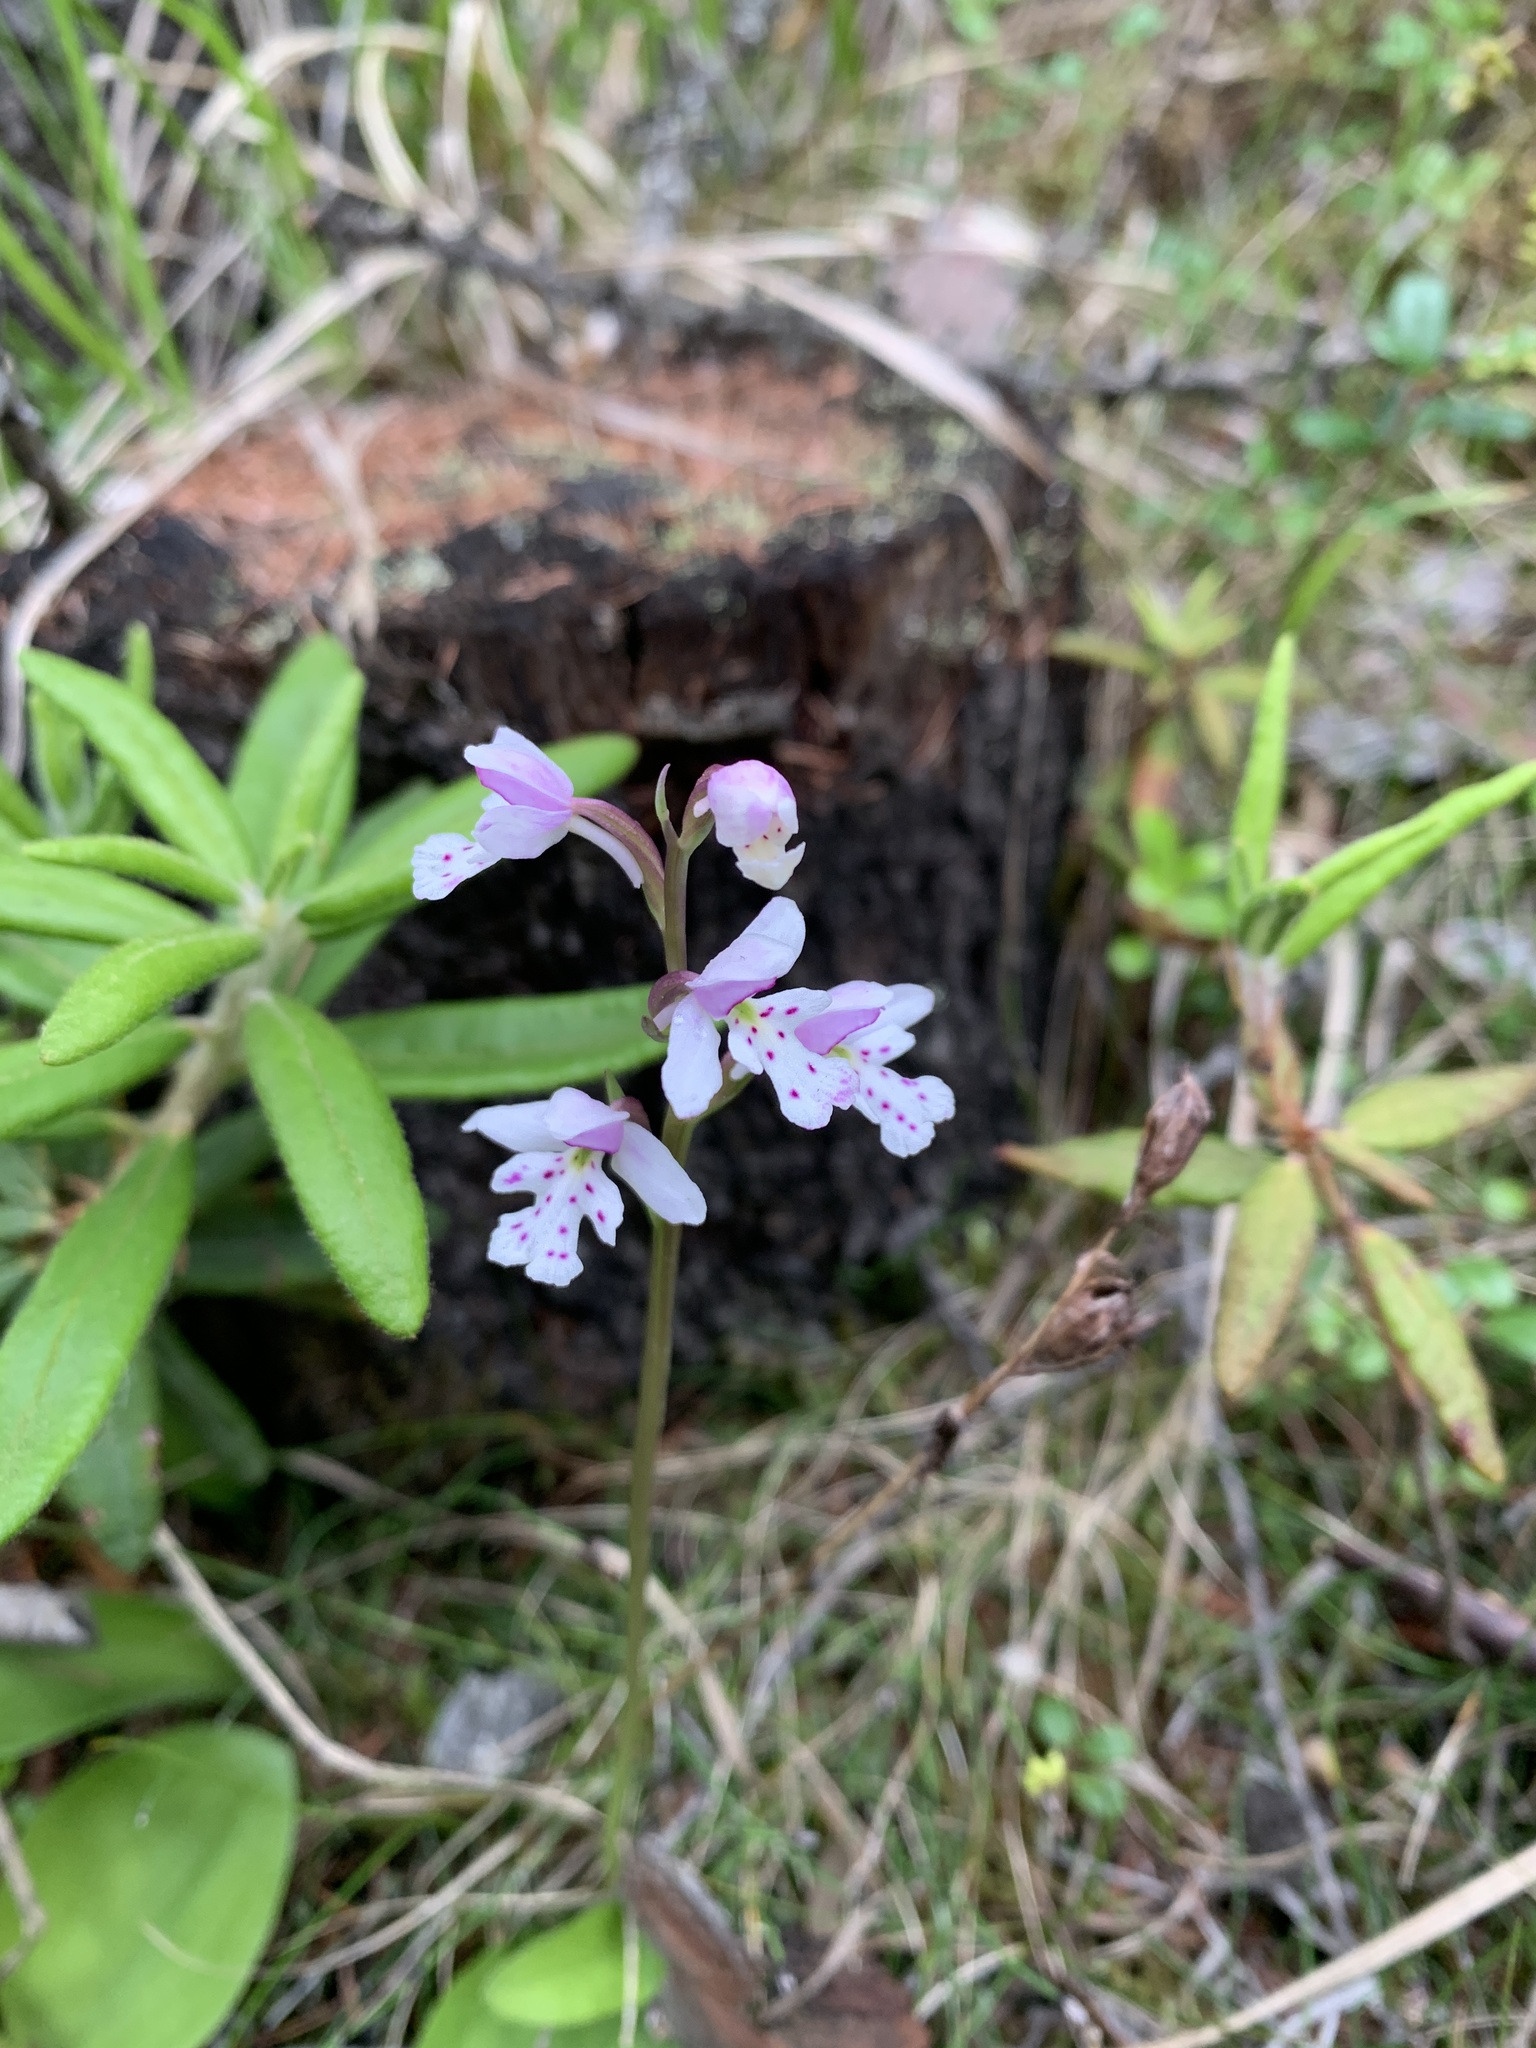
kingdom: Plantae
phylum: Tracheophyta
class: Liliopsida
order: Asparagales
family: Orchidaceae
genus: Galearis
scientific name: Galearis rotundifolia
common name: One-leaved orchis
